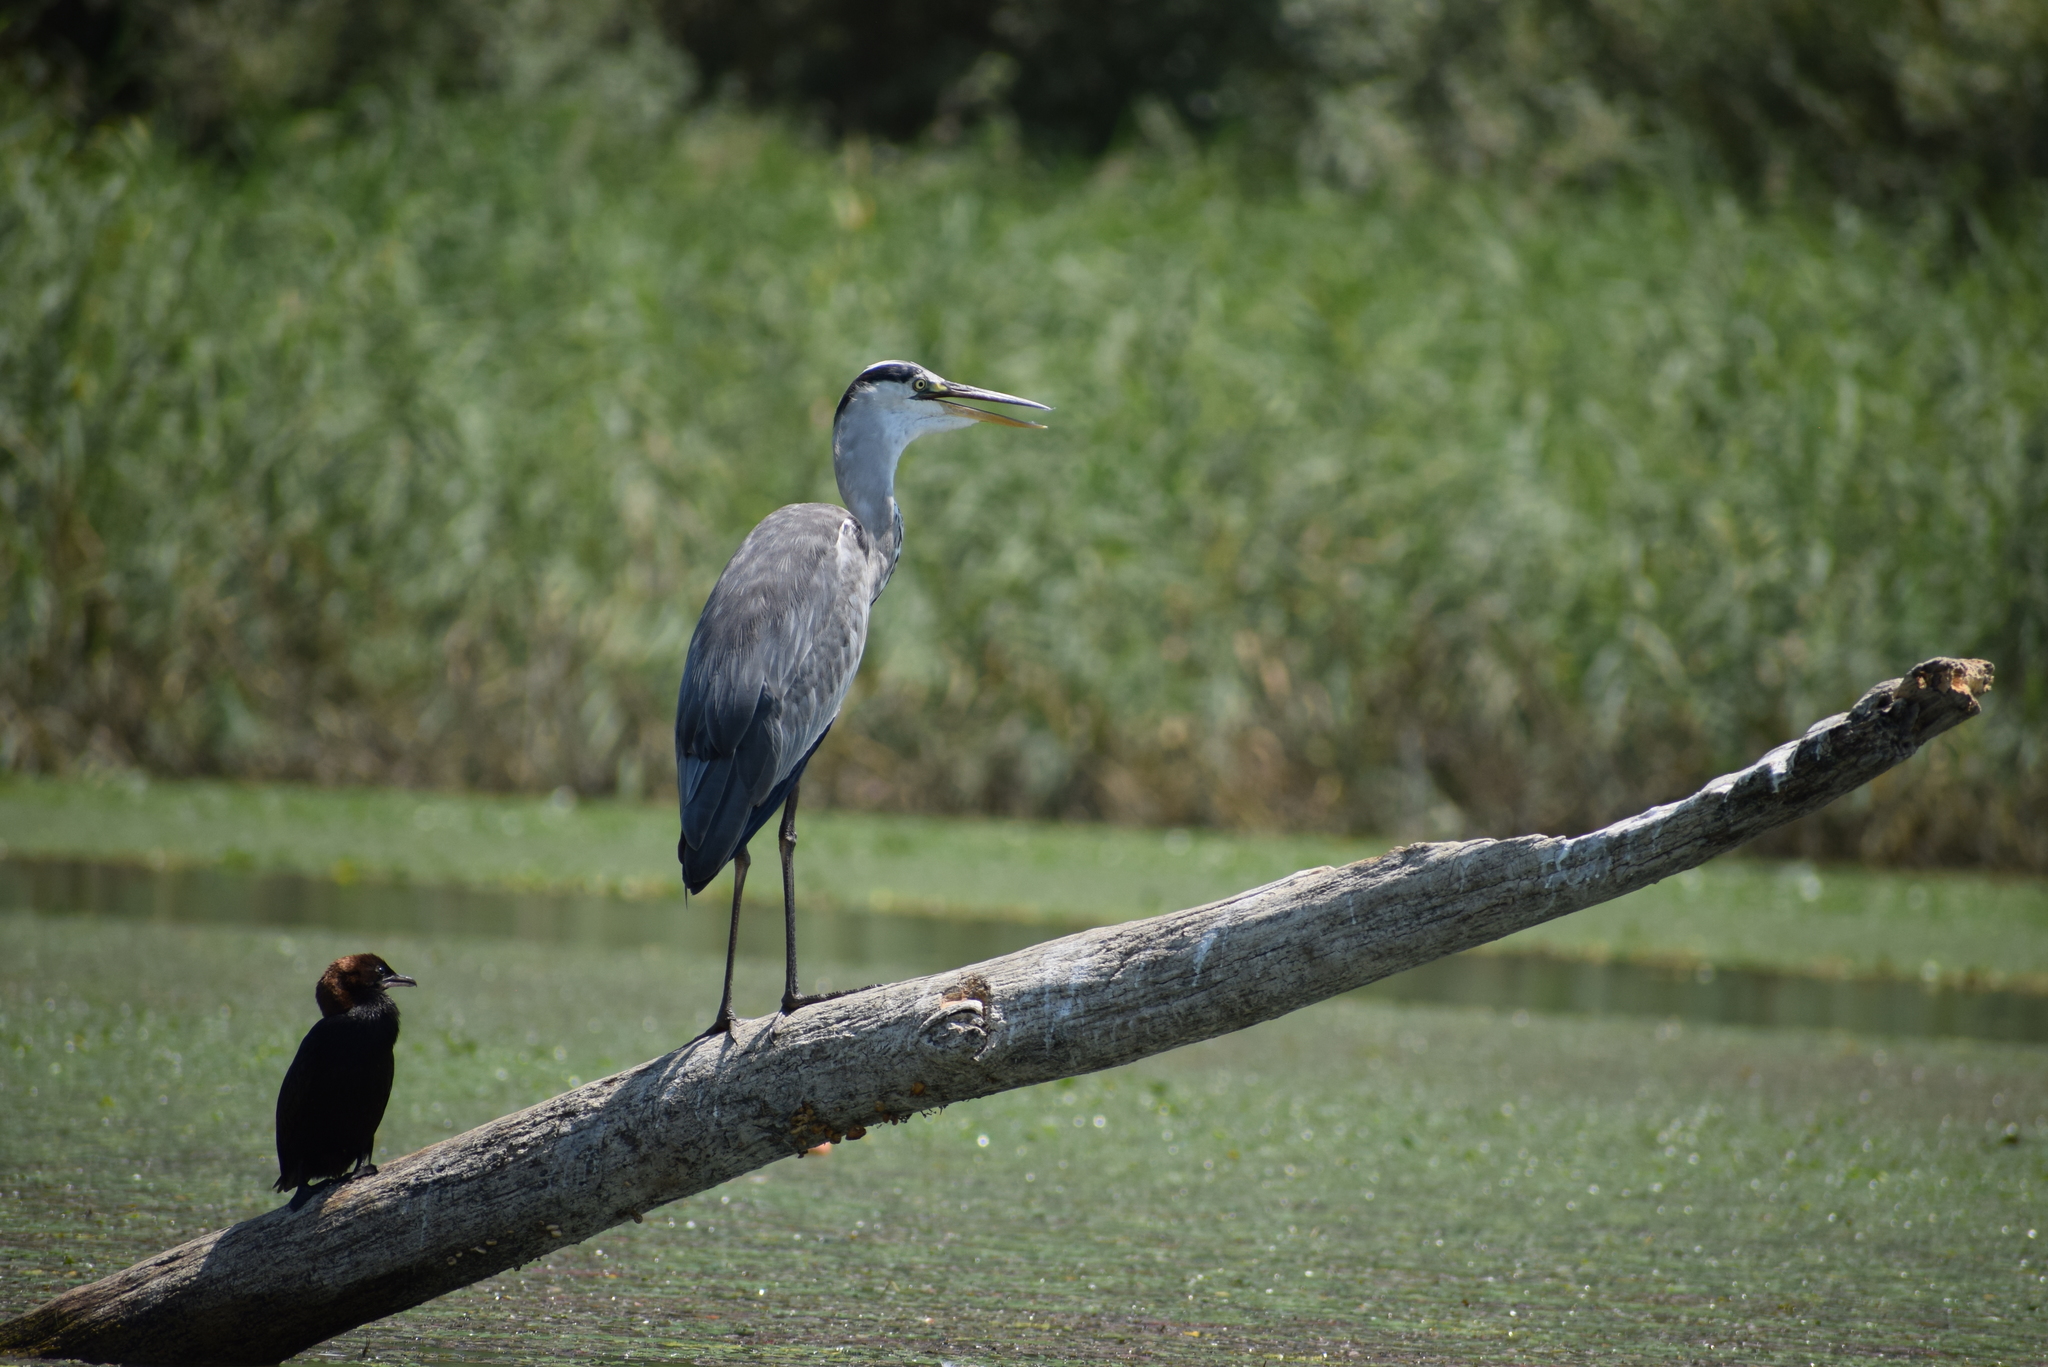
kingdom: Animalia
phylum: Chordata
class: Aves
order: Pelecaniformes
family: Ardeidae
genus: Ardea
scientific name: Ardea cinerea
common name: Grey heron
